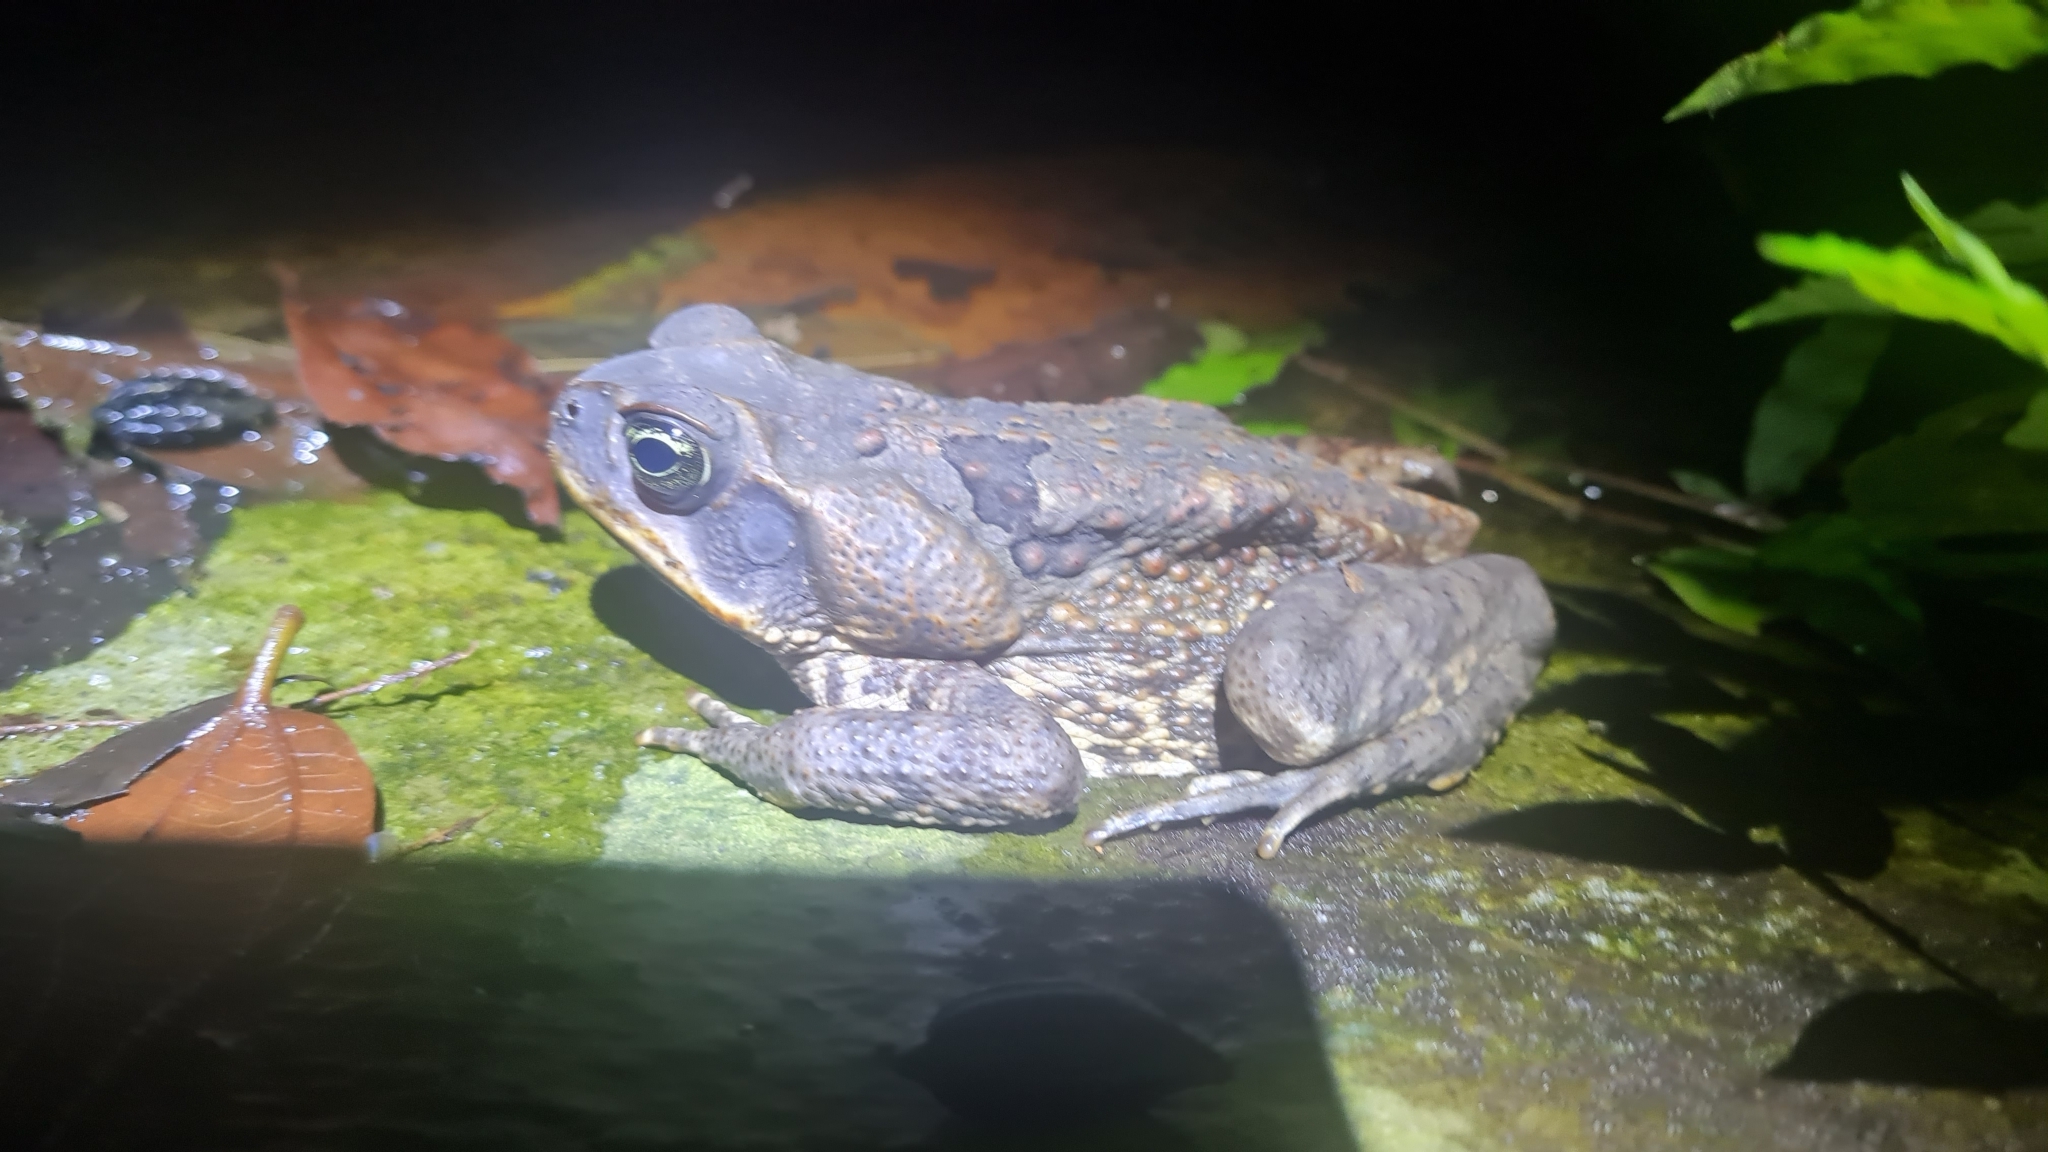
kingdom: Animalia
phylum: Chordata
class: Amphibia
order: Anura
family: Bufonidae
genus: Rhinella
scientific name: Rhinella horribilis
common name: Mesoamerican cane toad
